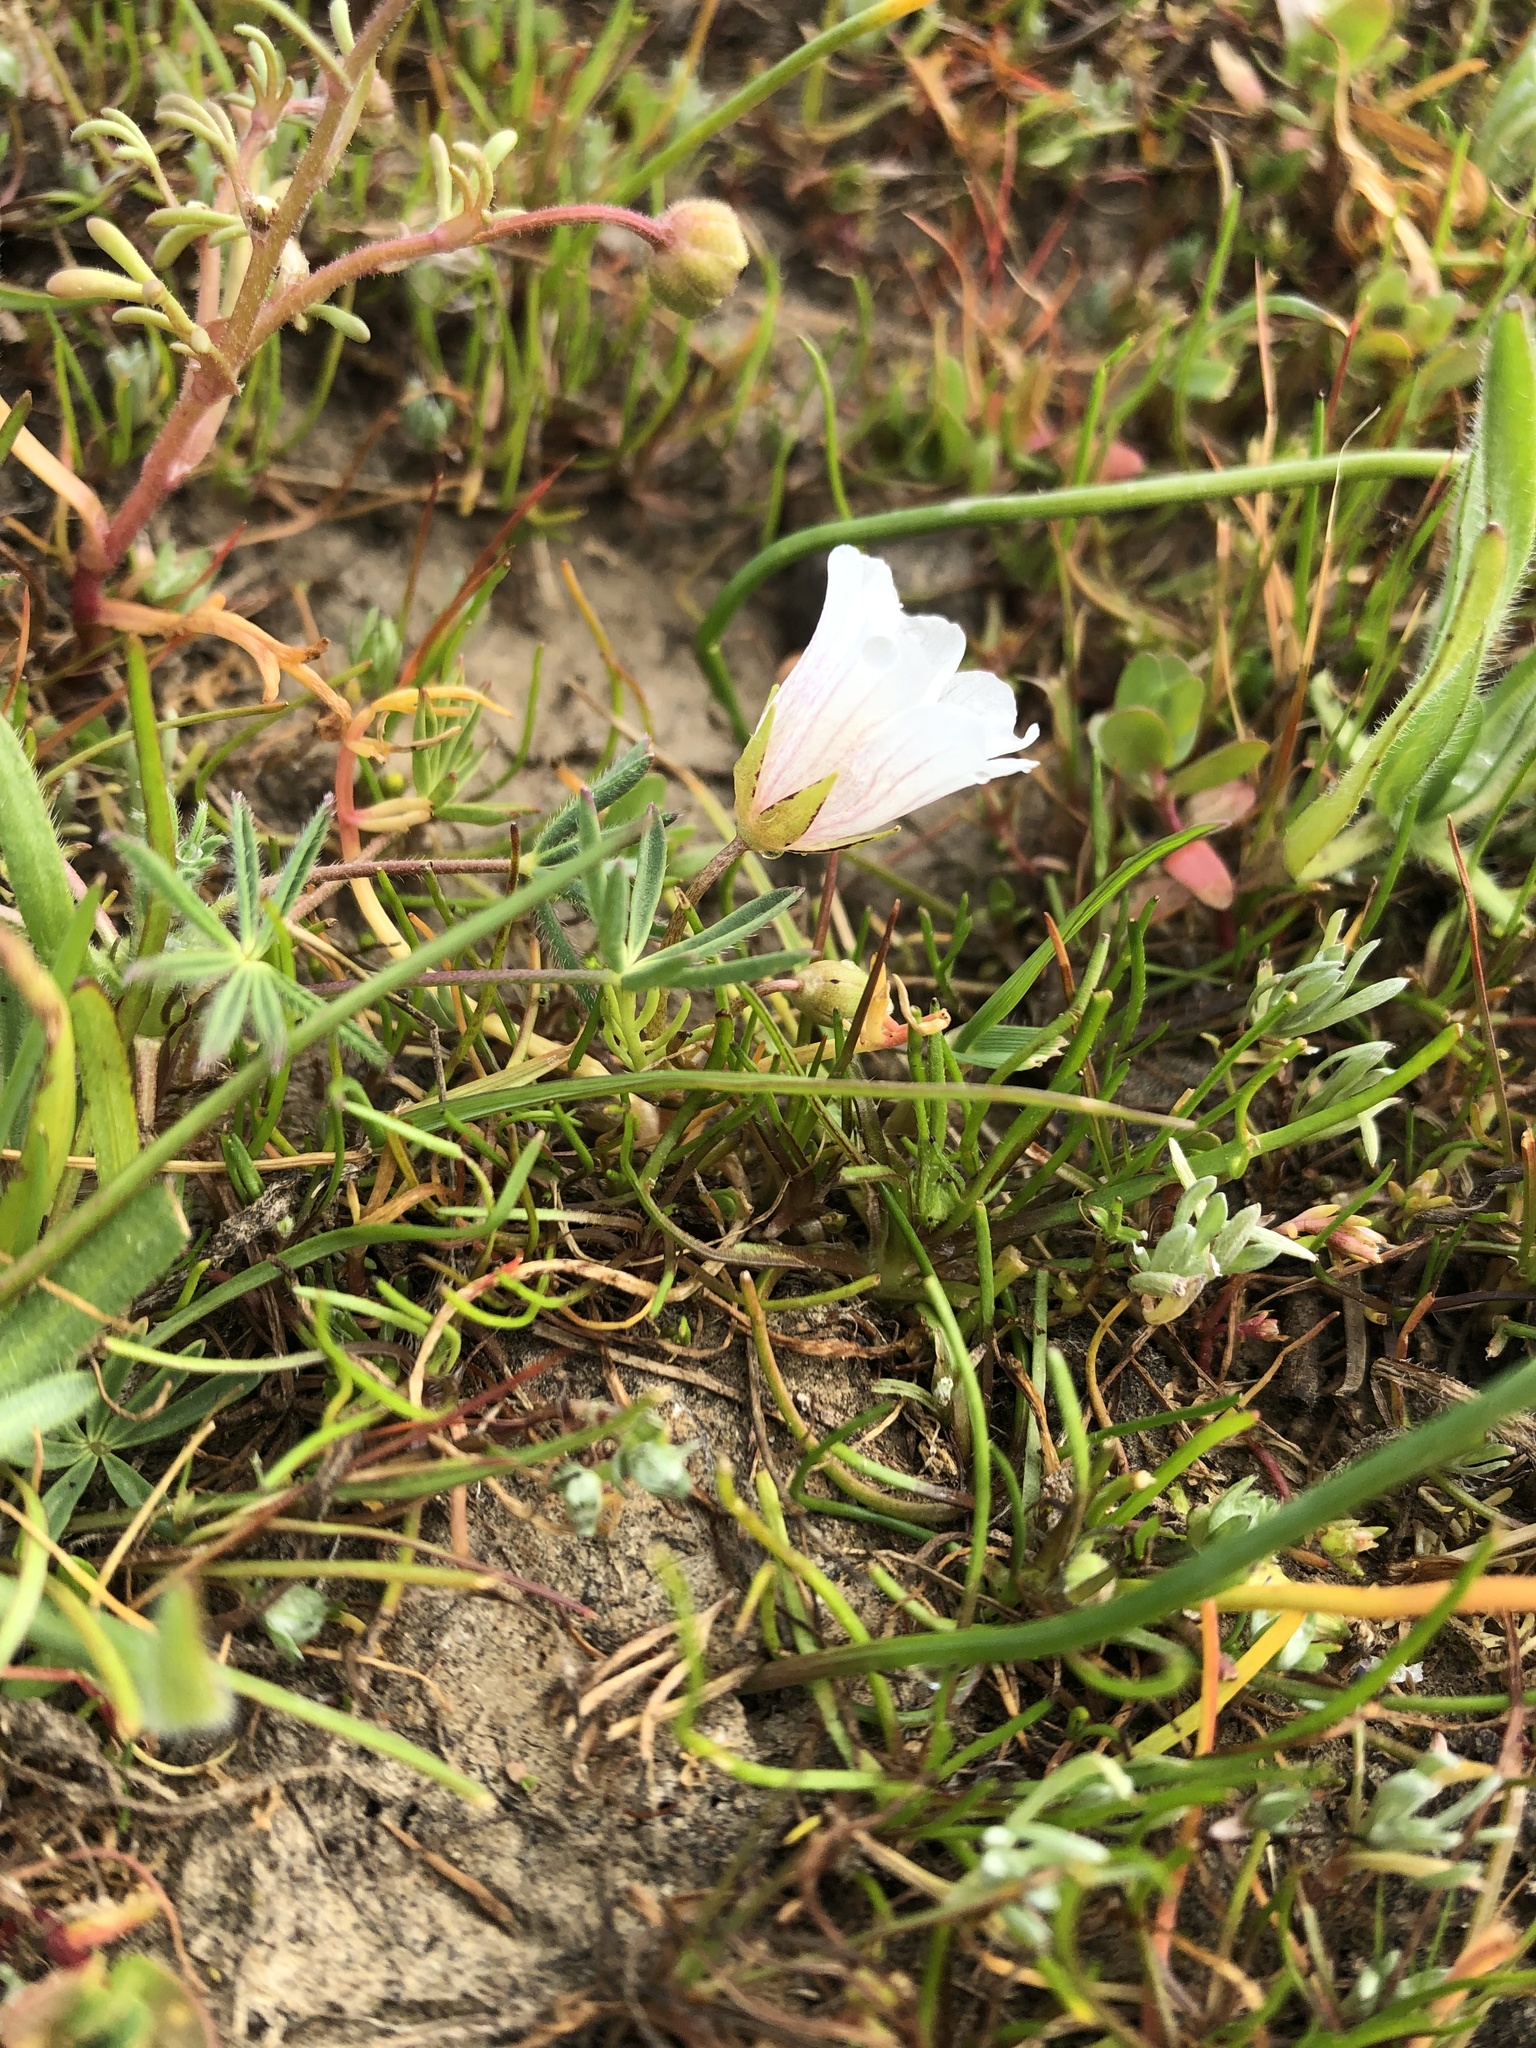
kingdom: Plantae
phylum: Tracheophyta
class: Magnoliopsida
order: Brassicales
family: Limnanthaceae
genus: Limnanthes
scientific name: Limnanthes douglasii
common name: Meadow-foam
